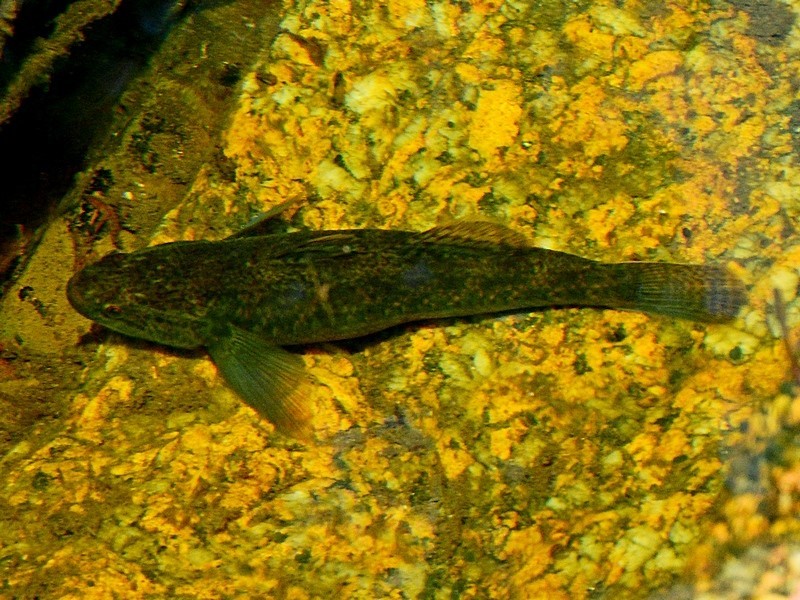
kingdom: Animalia
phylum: Chordata
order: Perciformes
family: Eleotridae
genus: Gobiomorphus
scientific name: Gobiomorphus coxii
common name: Cox's gudgeon
